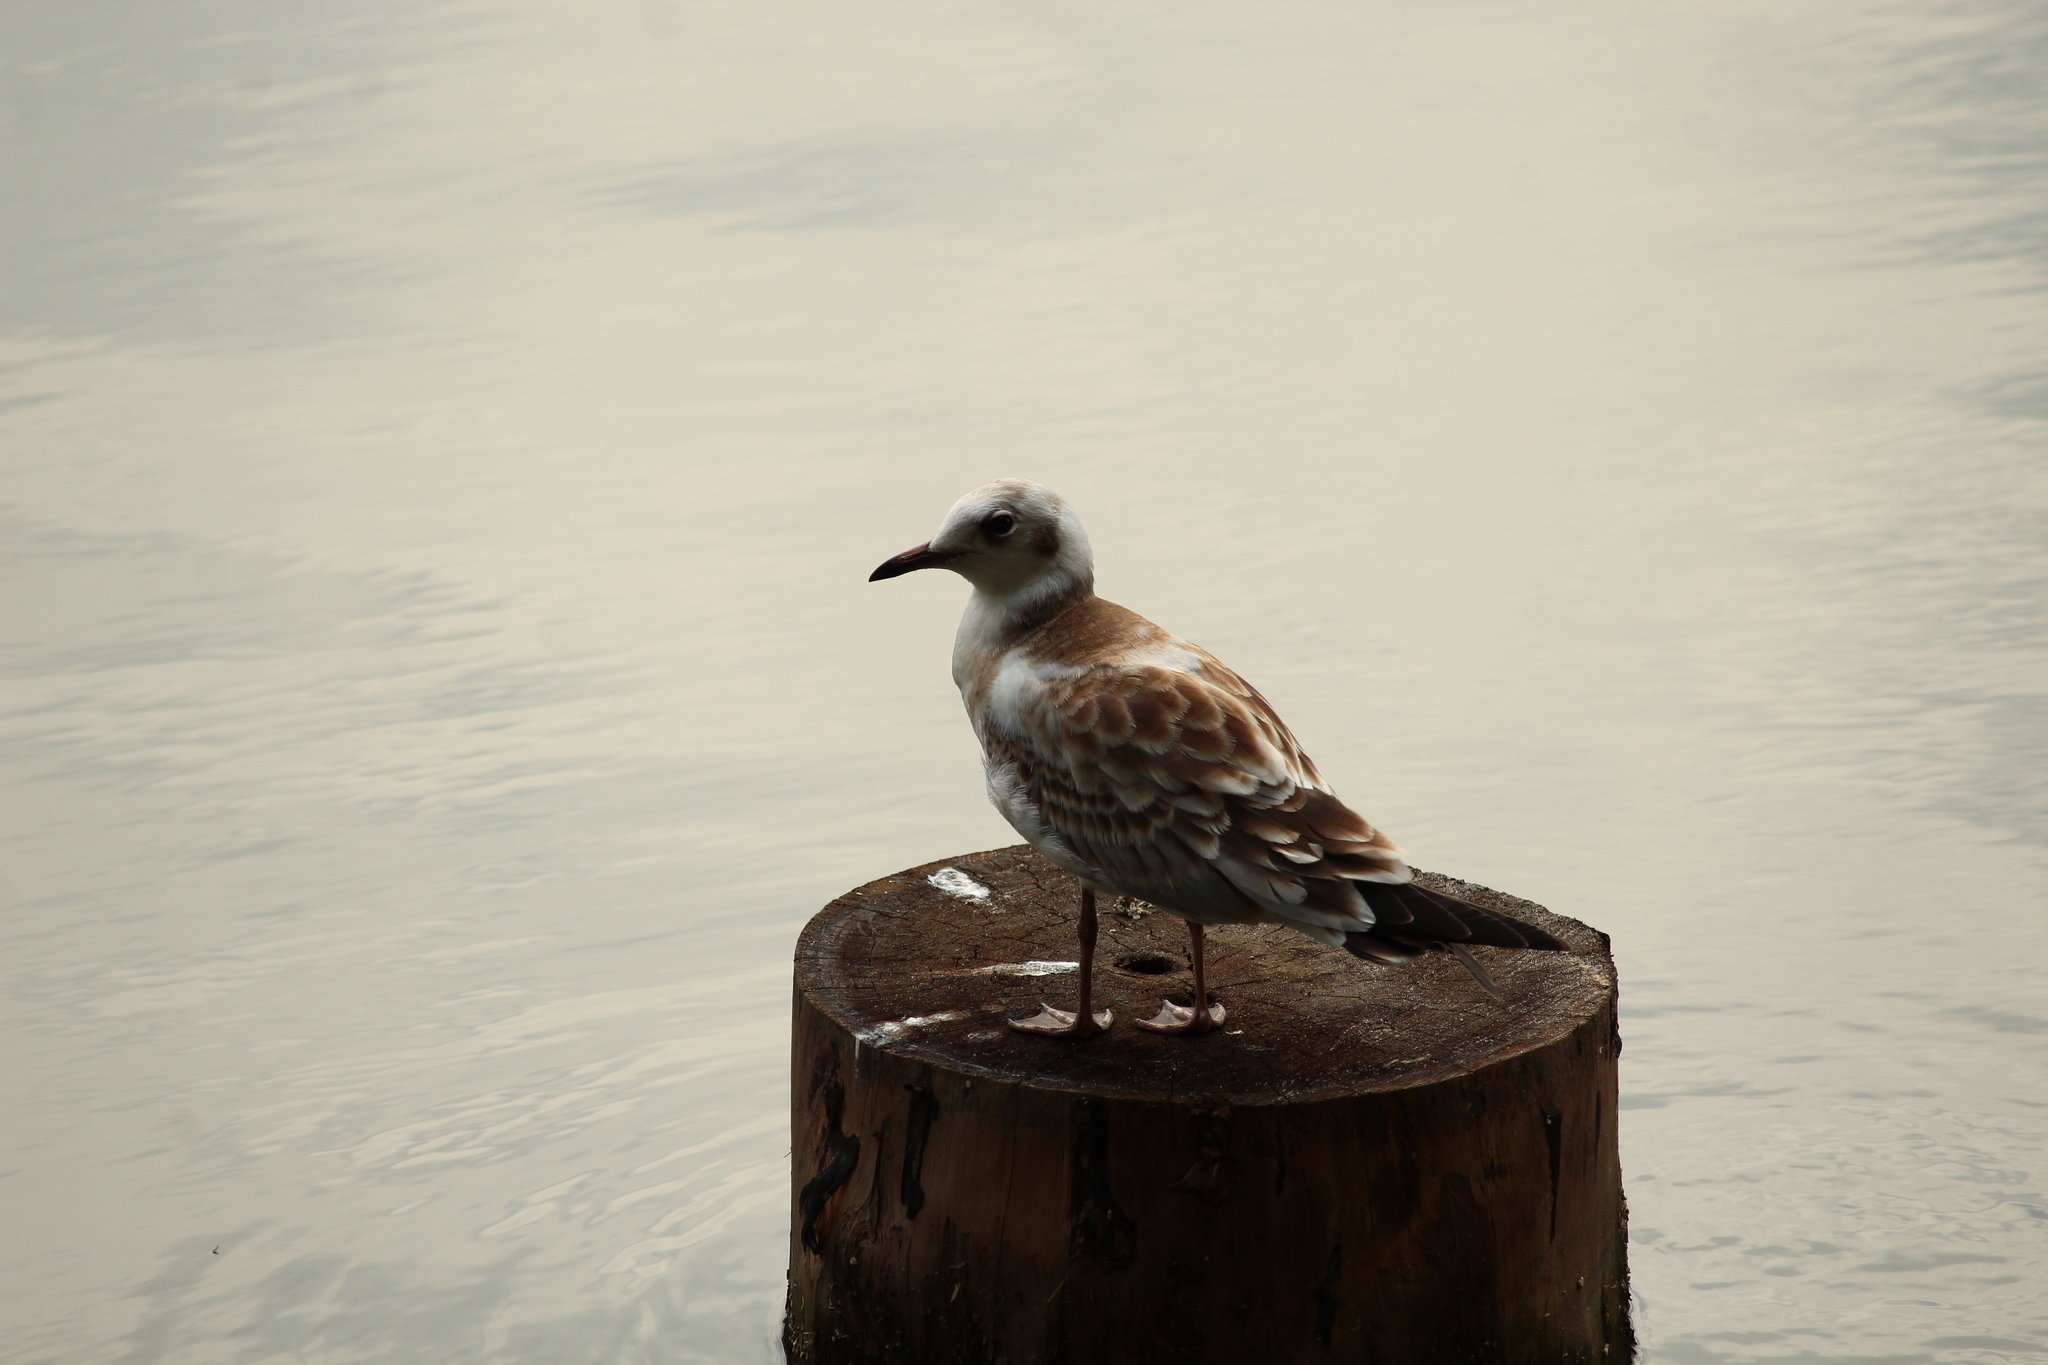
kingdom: Animalia
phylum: Chordata
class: Aves
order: Charadriiformes
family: Laridae
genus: Chroicocephalus
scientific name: Chroicocephalus ridibundus
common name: Black-headed gull
